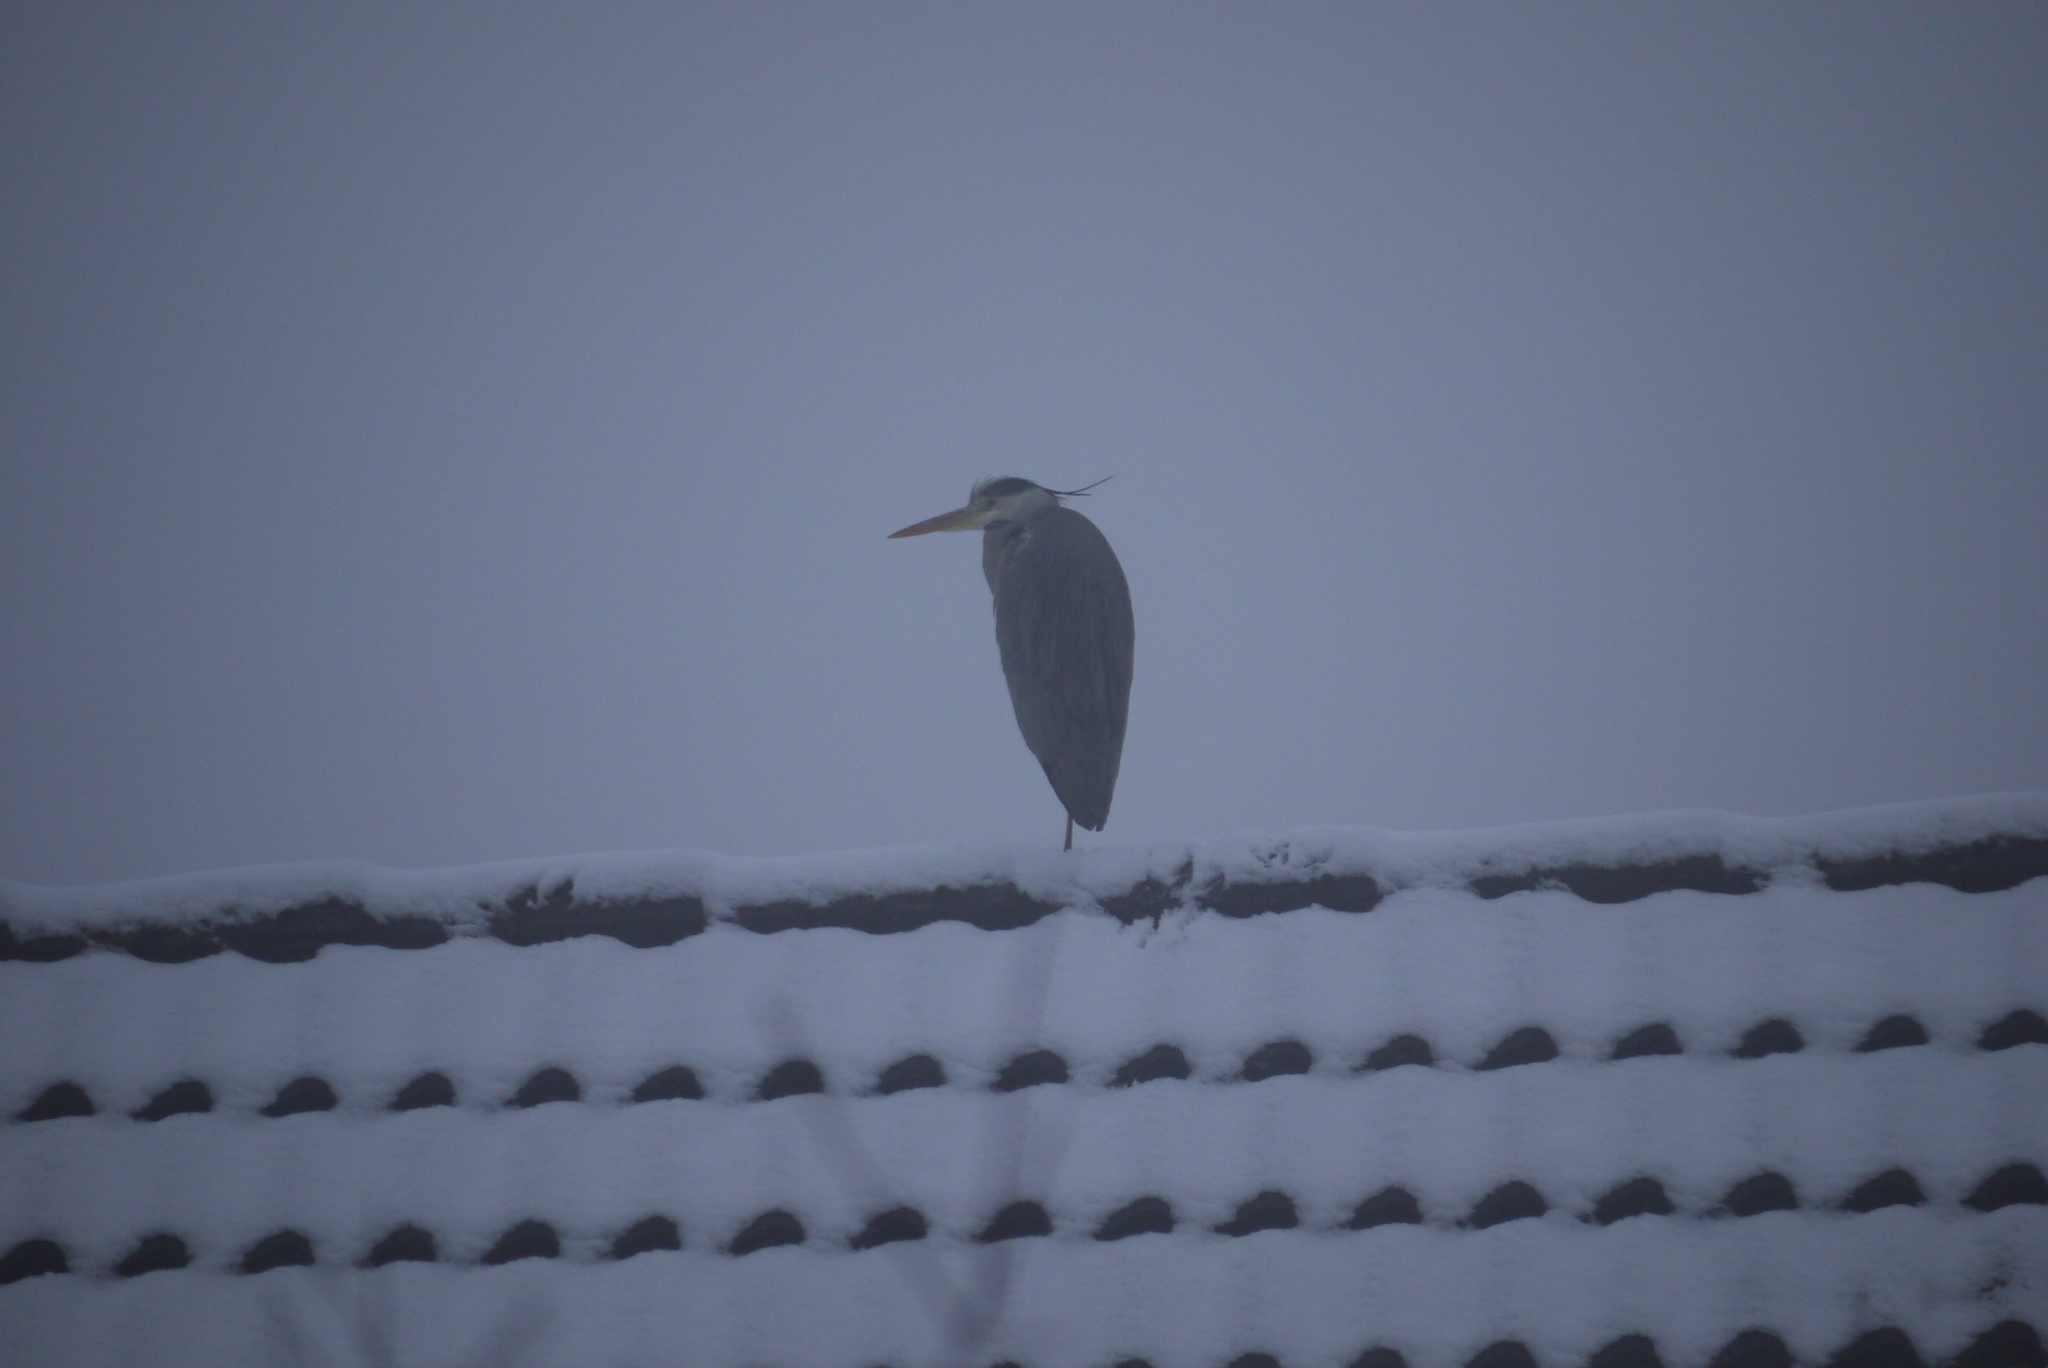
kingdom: Animalia
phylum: Chordata
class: Aves
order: Pelecaniformes
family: Ardeidae
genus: Ardea
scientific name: Ardea cinerea
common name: Grey heron
